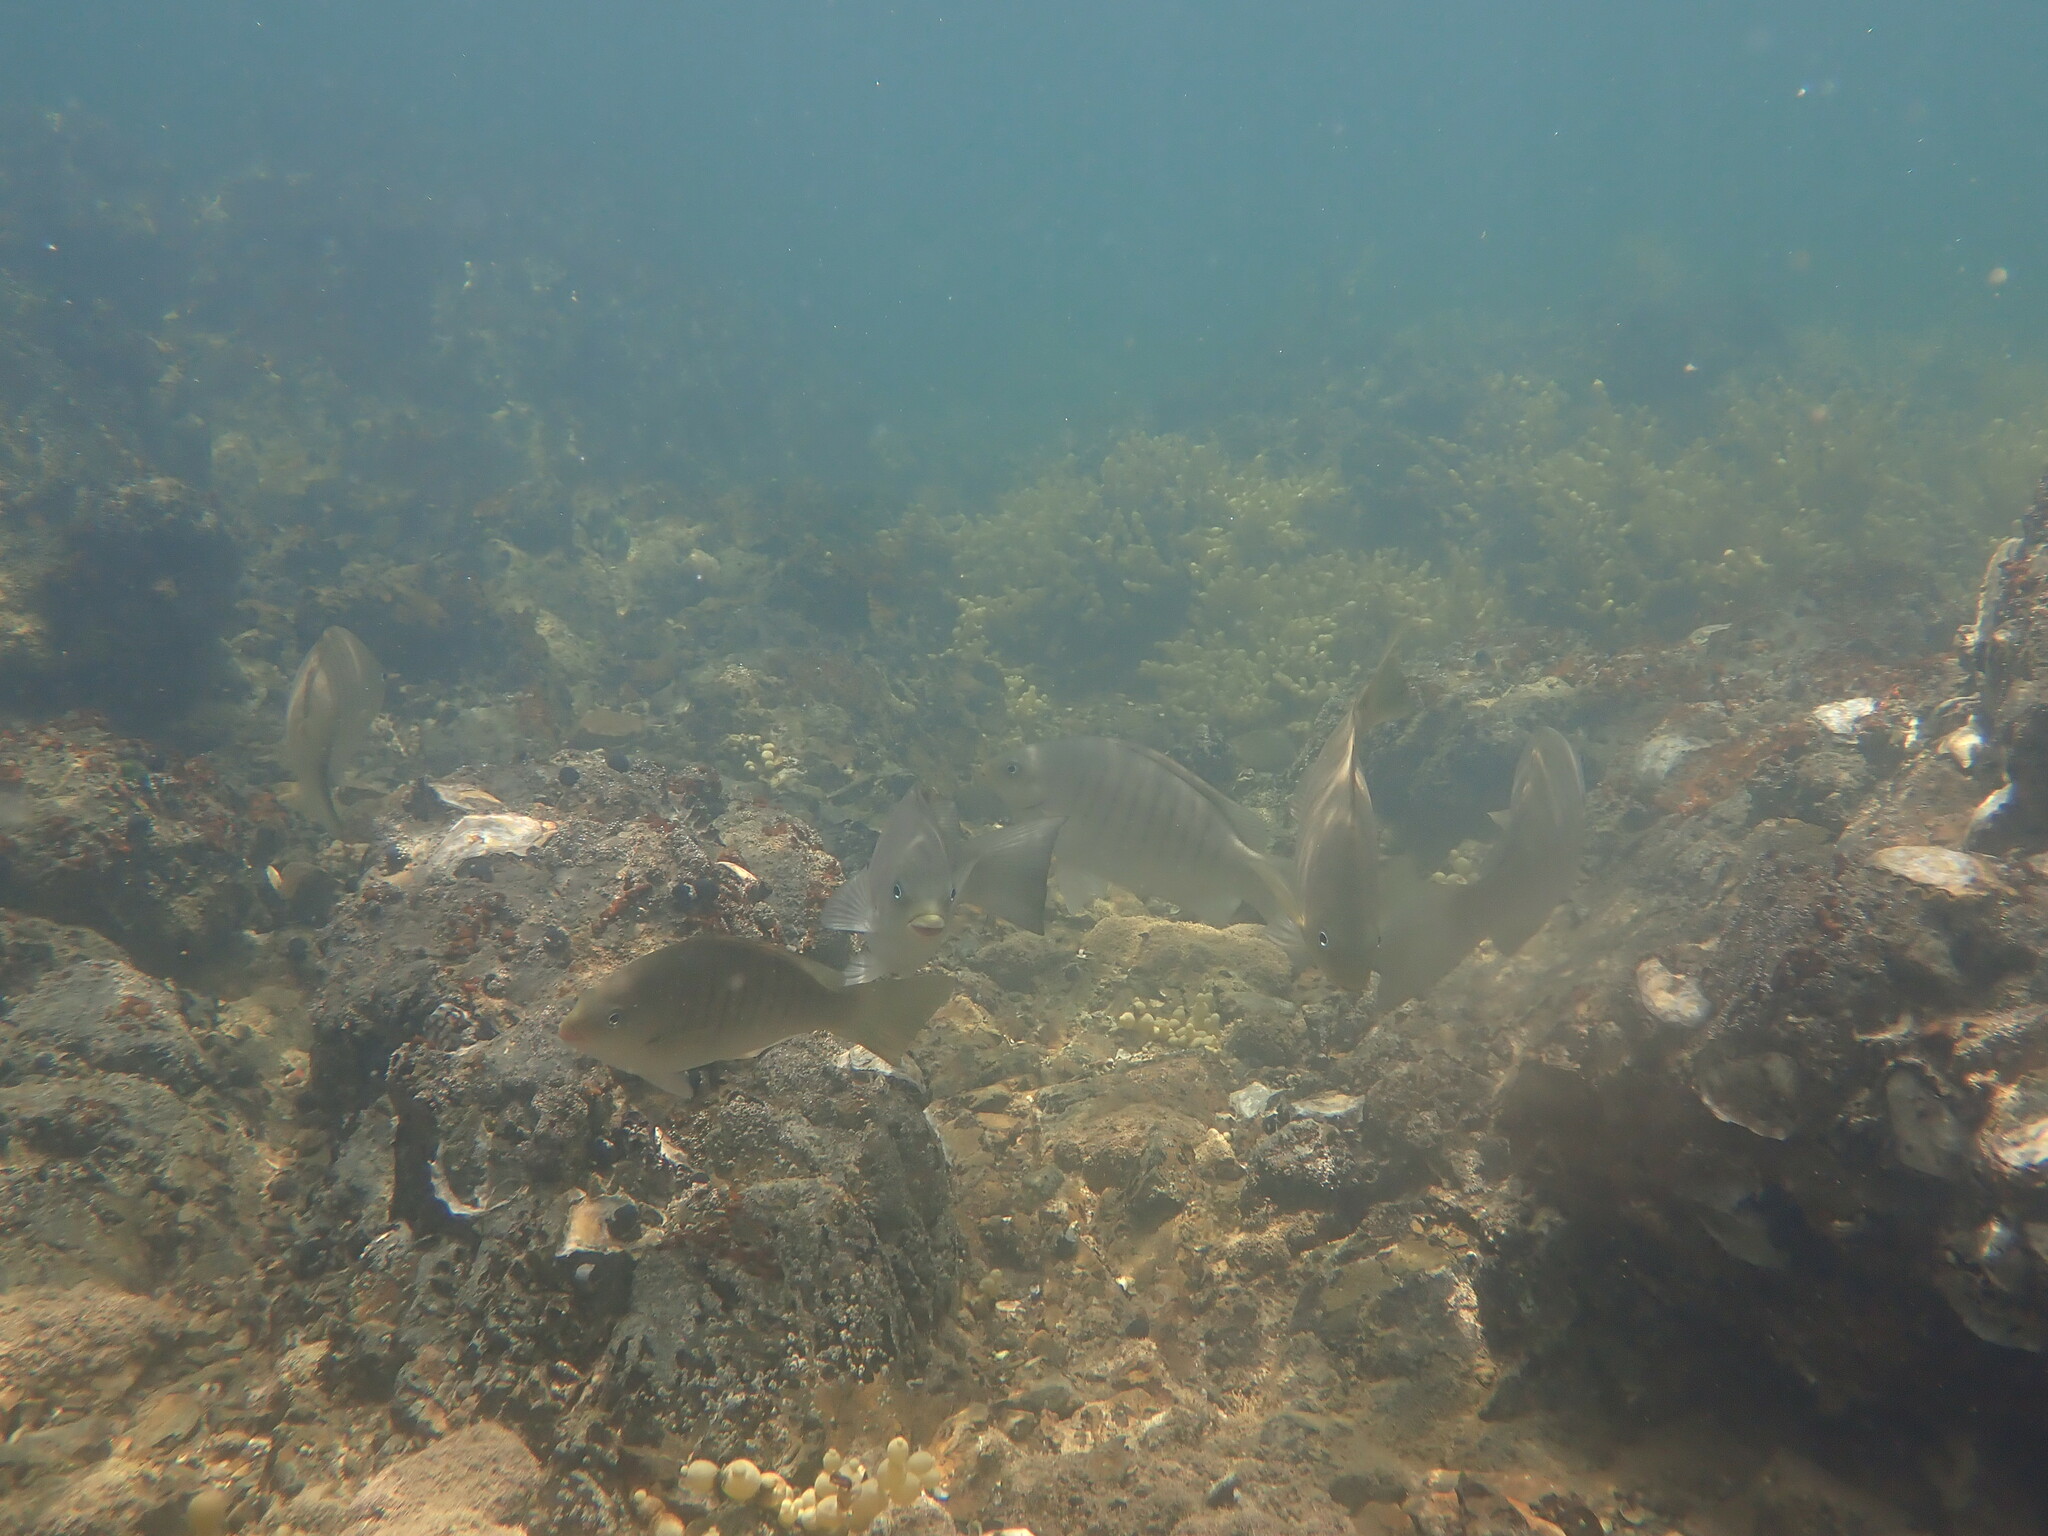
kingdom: Animalia
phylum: Chordata
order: Perciformes
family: Kyphosidae
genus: Girella
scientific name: Girella tricuspidata
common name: Parore
